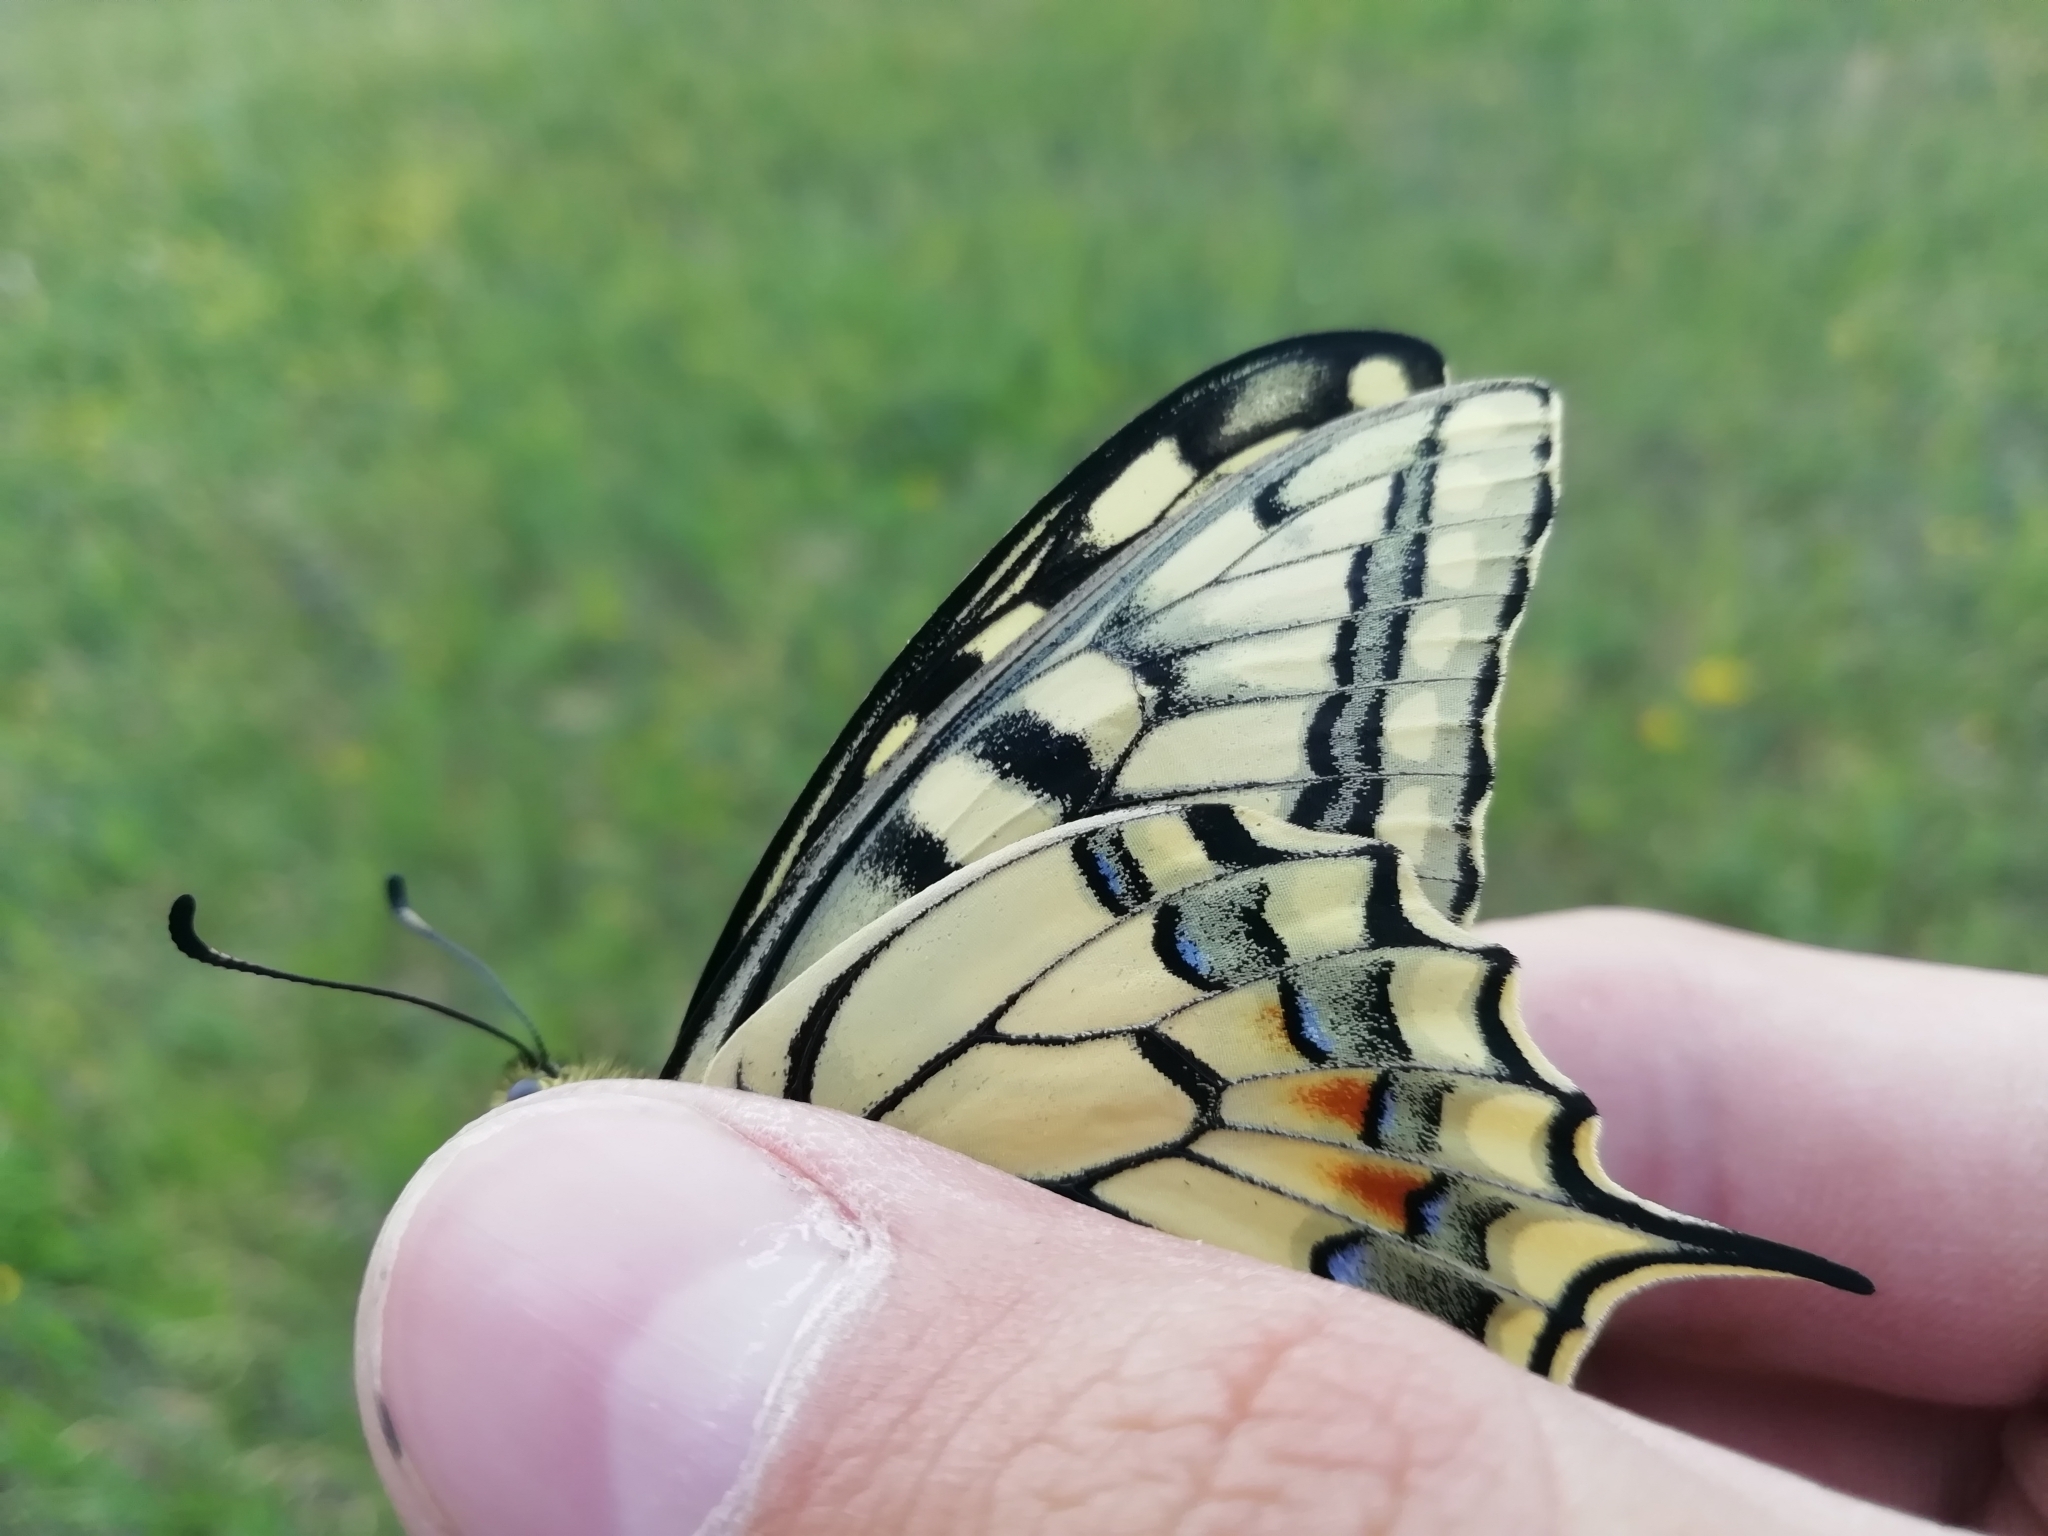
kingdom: Animalia
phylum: Arthropoda
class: Insecta
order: Lepidoptera
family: Papilionidae
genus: Papilio
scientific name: Papilio machaon
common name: Swallowtail
